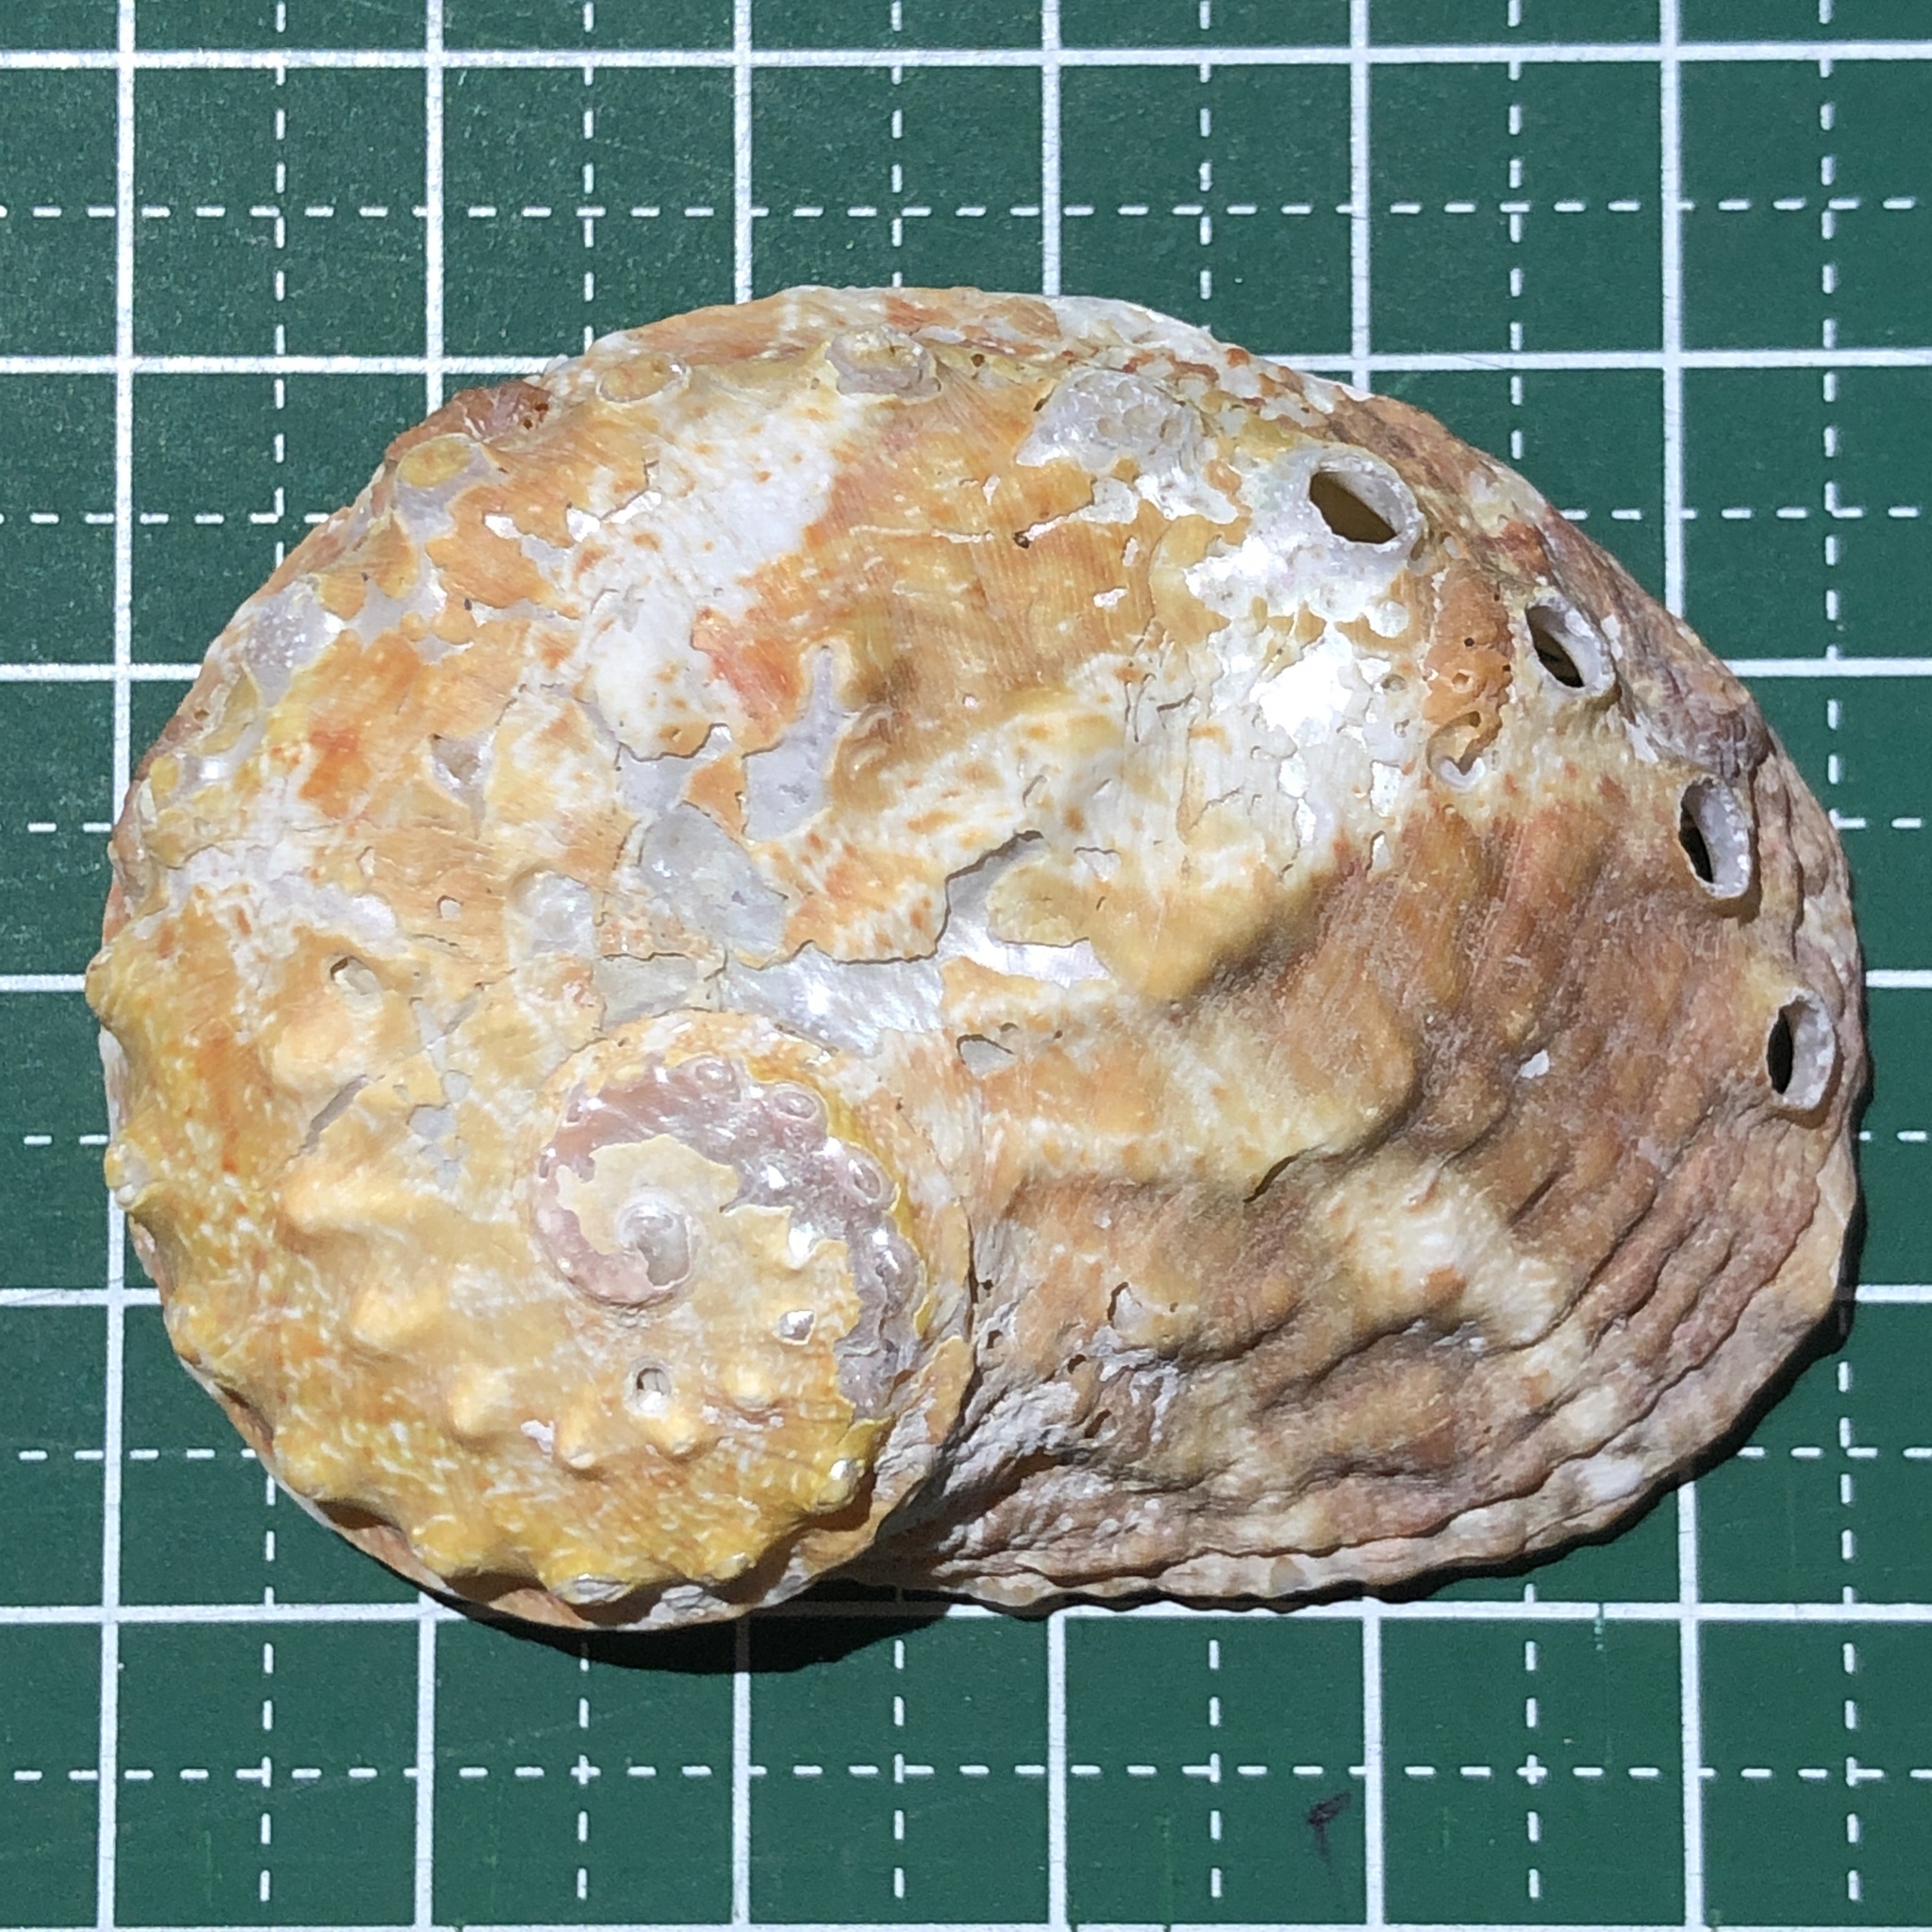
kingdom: Animalia
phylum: Mollusca
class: Gastropoda
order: Lepetellida
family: Haliotidae
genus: Haliotis
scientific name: Haliotis ovina
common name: Sheep's ear abalone
